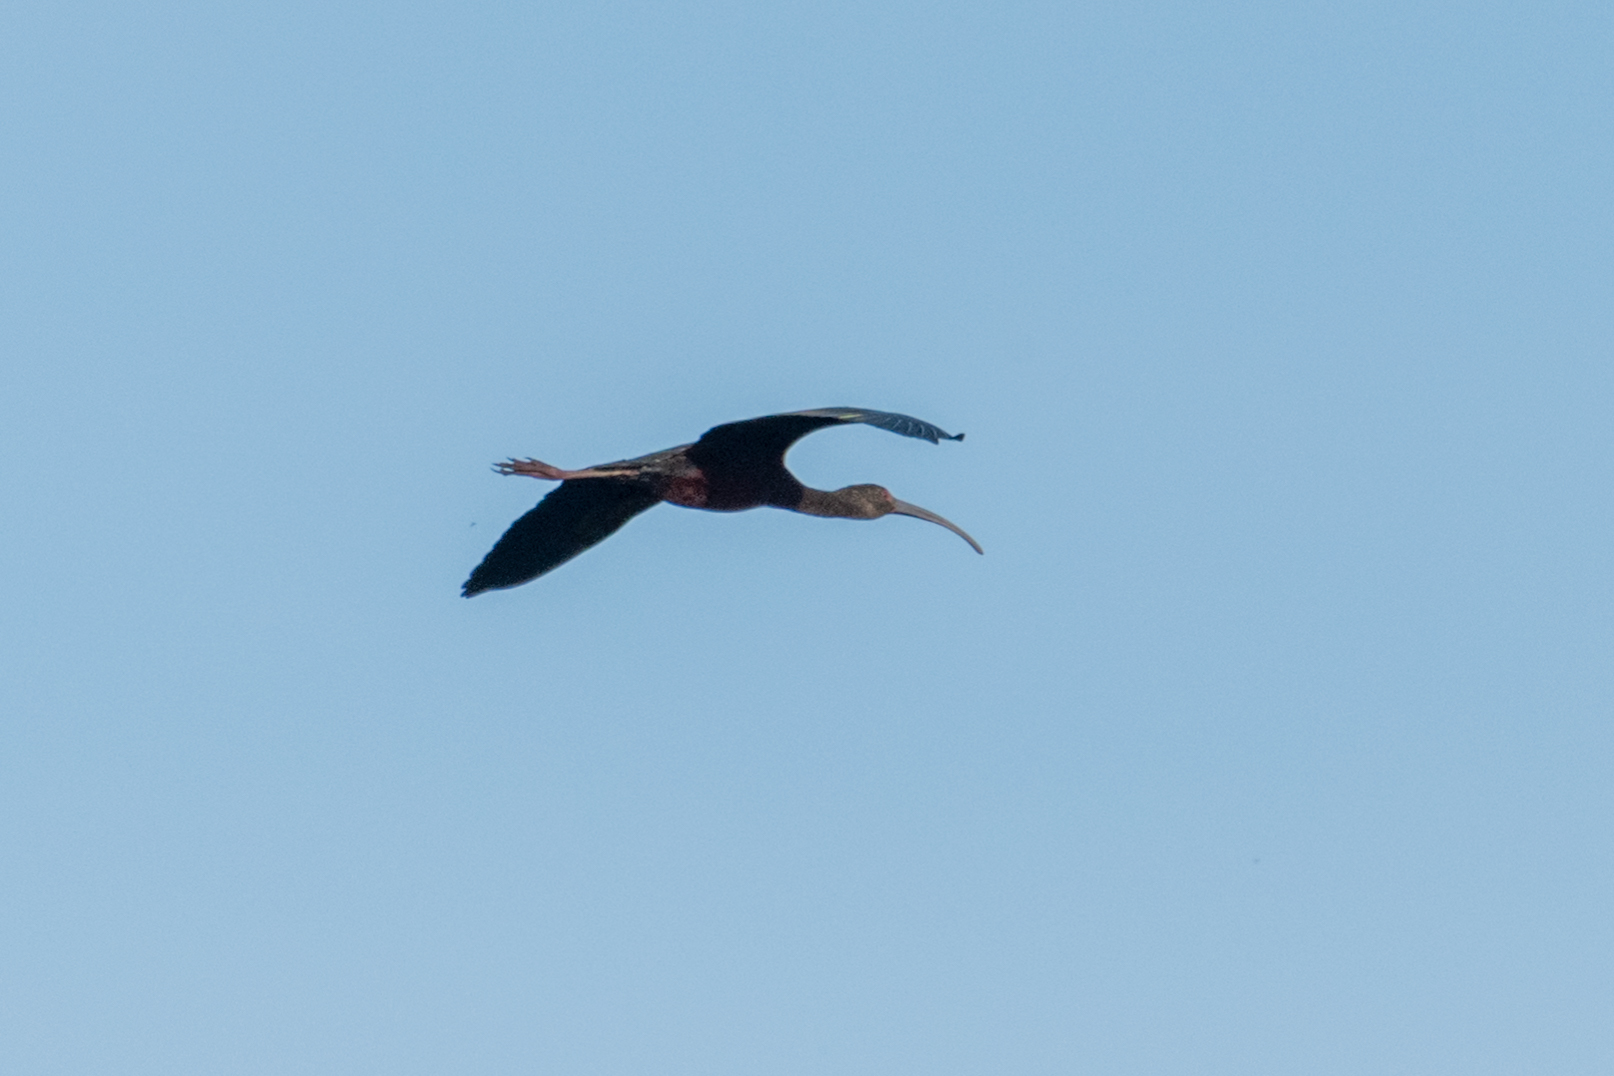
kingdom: Animalia
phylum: Chordata
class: Aves
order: Pelecaniformes
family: Threskiornithidae
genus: Plegadis
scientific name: Plegadis chihi
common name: White-faced ibis
